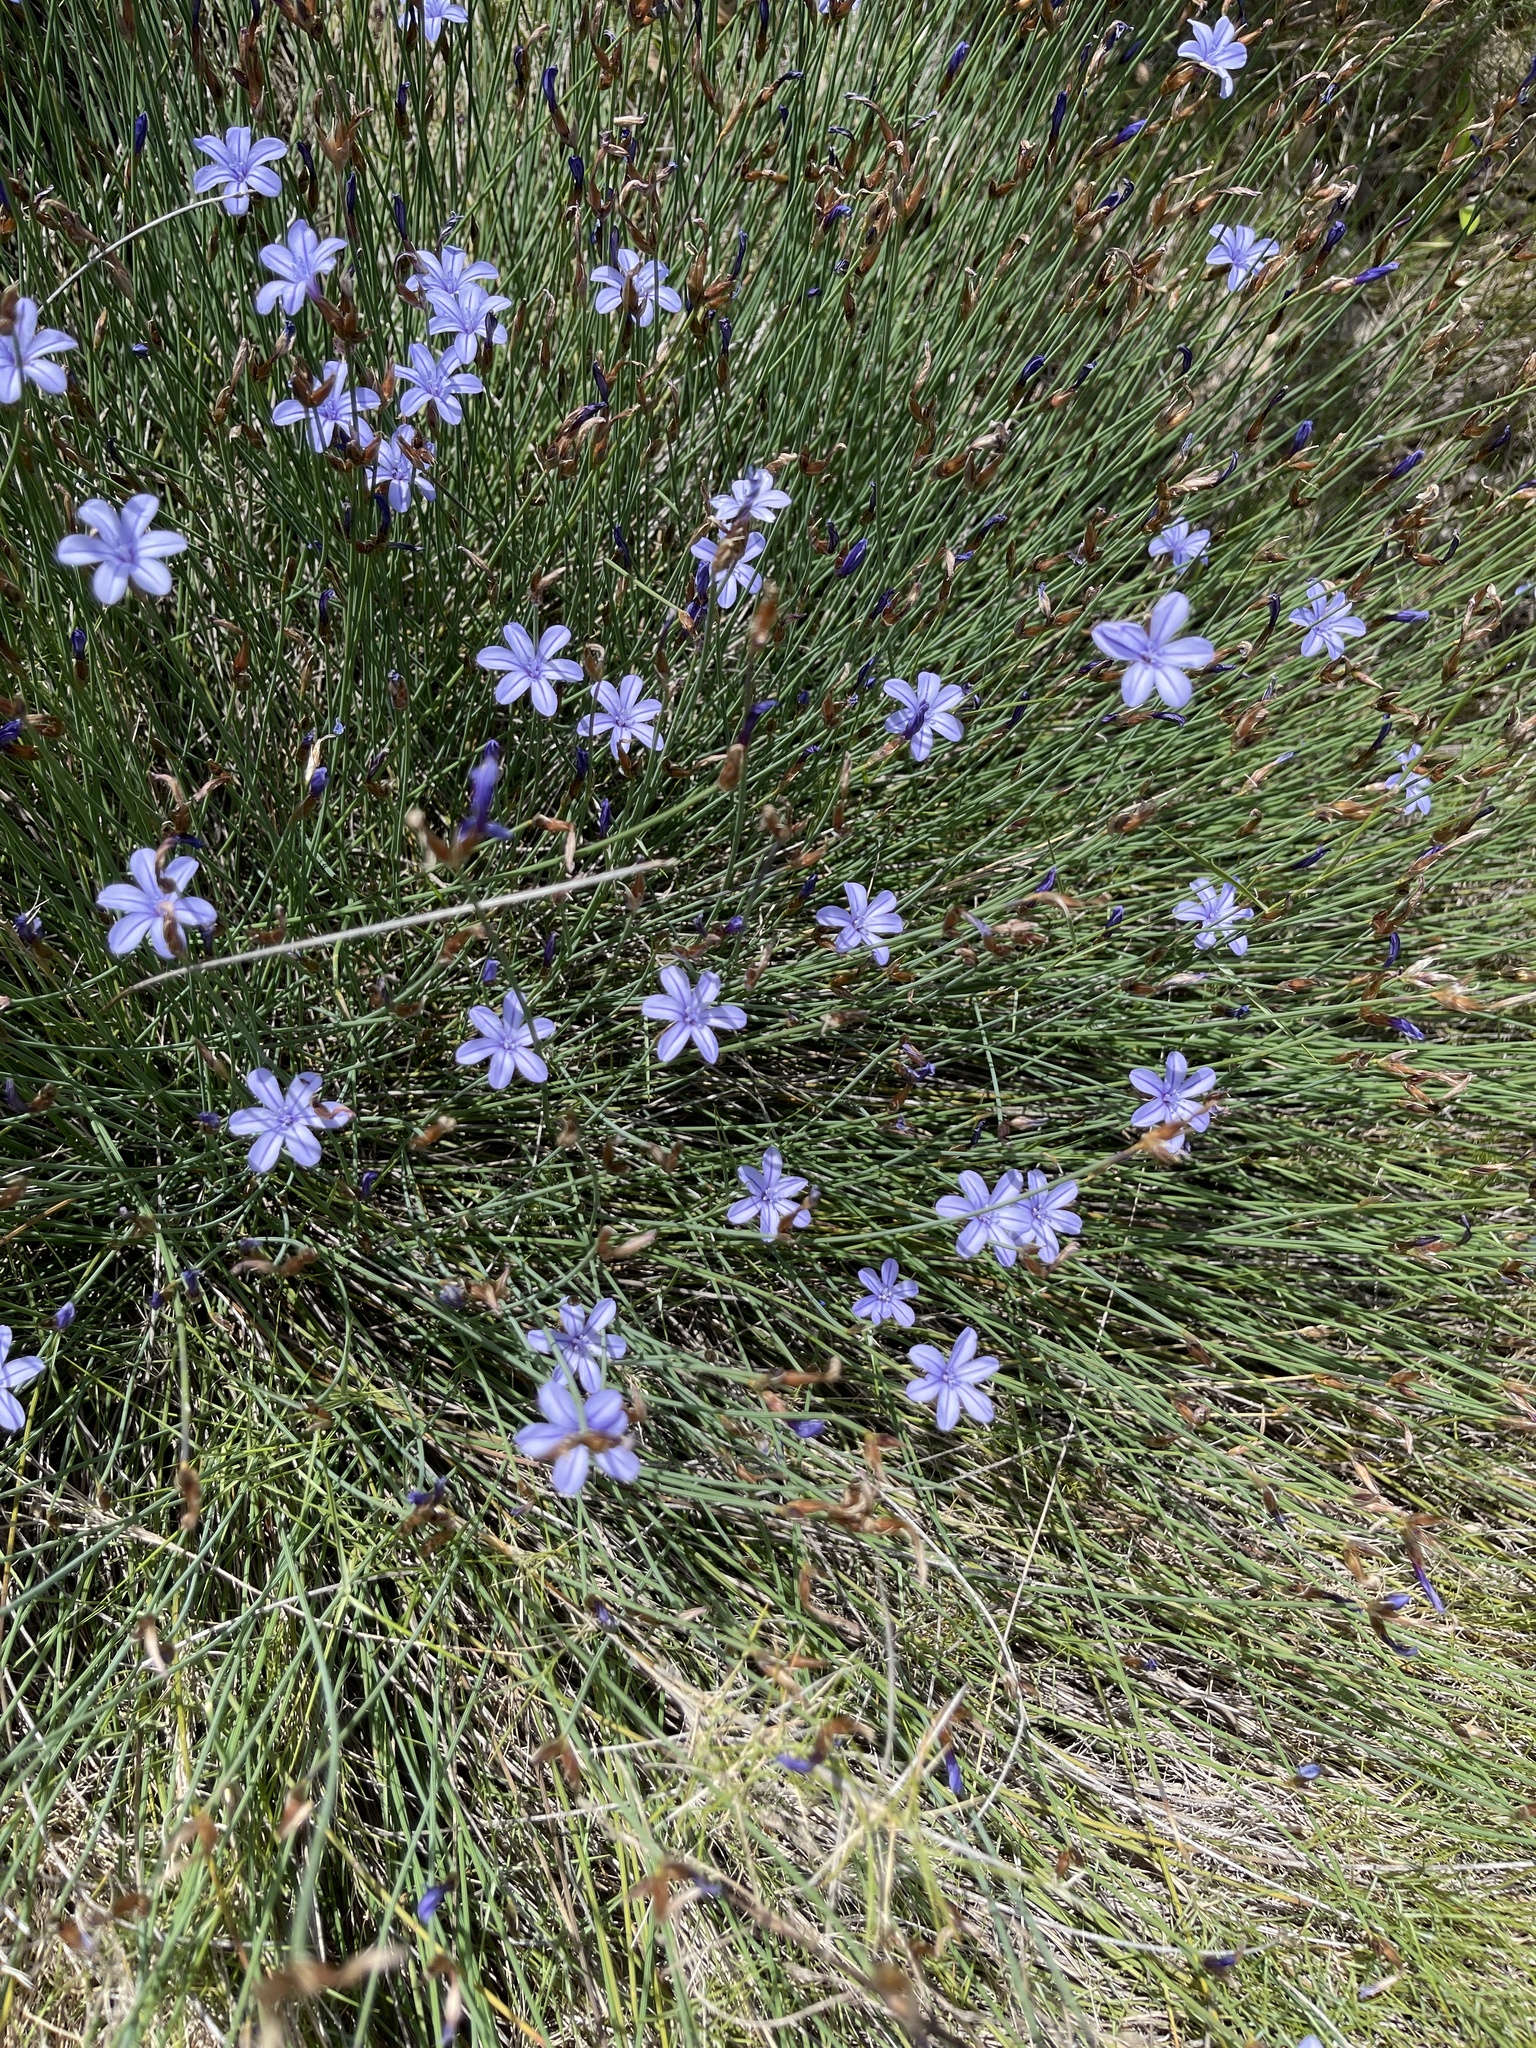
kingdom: Plantae
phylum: Tracheophyta
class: Liliopsida
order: Asparagales
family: Asparagaceae
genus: Aphyllanthes
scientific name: Aphyllanthes monspeliensis
